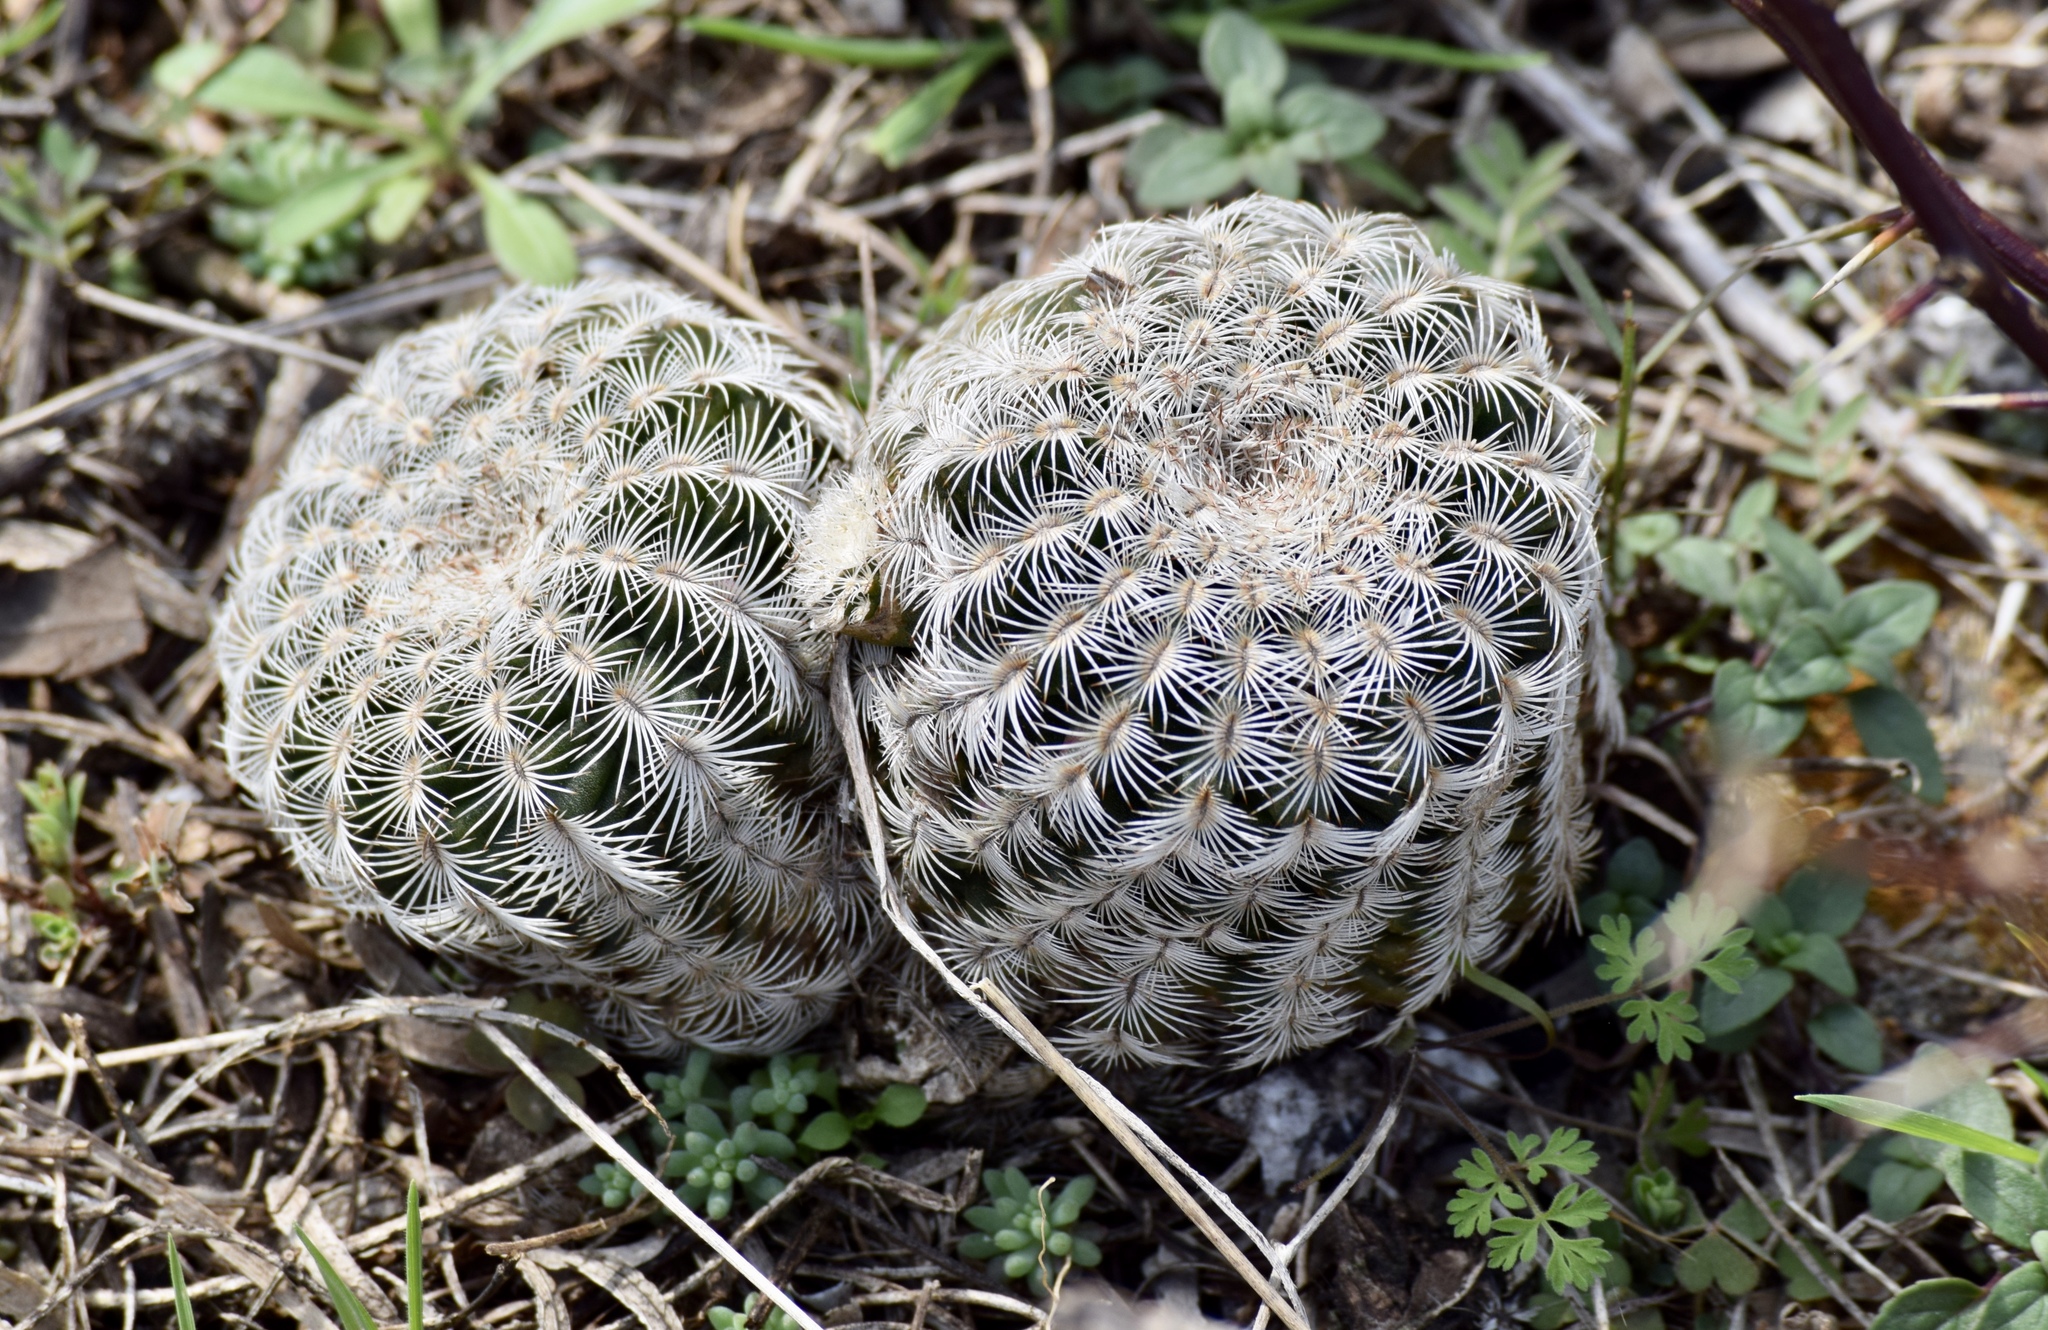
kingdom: Plantae
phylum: Tracheophyta
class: Magnoliopsida
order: Caryophyllales
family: Cactaceae
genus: Echinocereus
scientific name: Echinocereus reichenbachii
